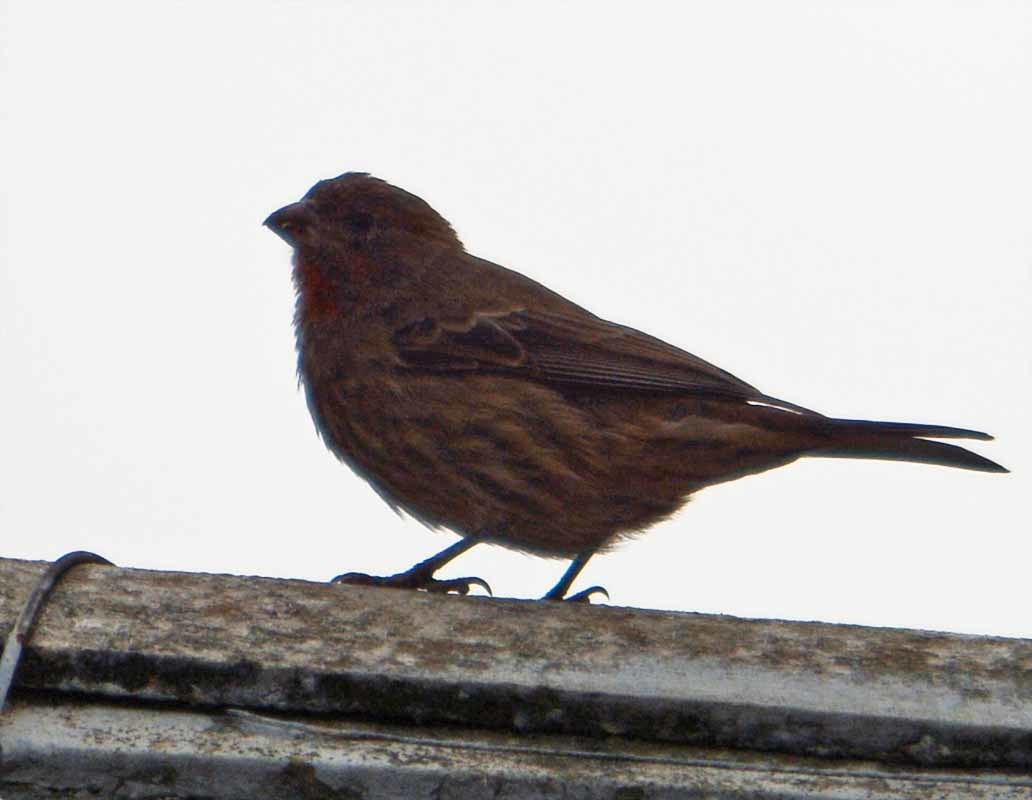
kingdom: Animalia
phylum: Chordata
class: Aves
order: Passeriformes
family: Fringillidae
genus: Haemorhous
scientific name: Haemorhous mexicanus
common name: House finch
